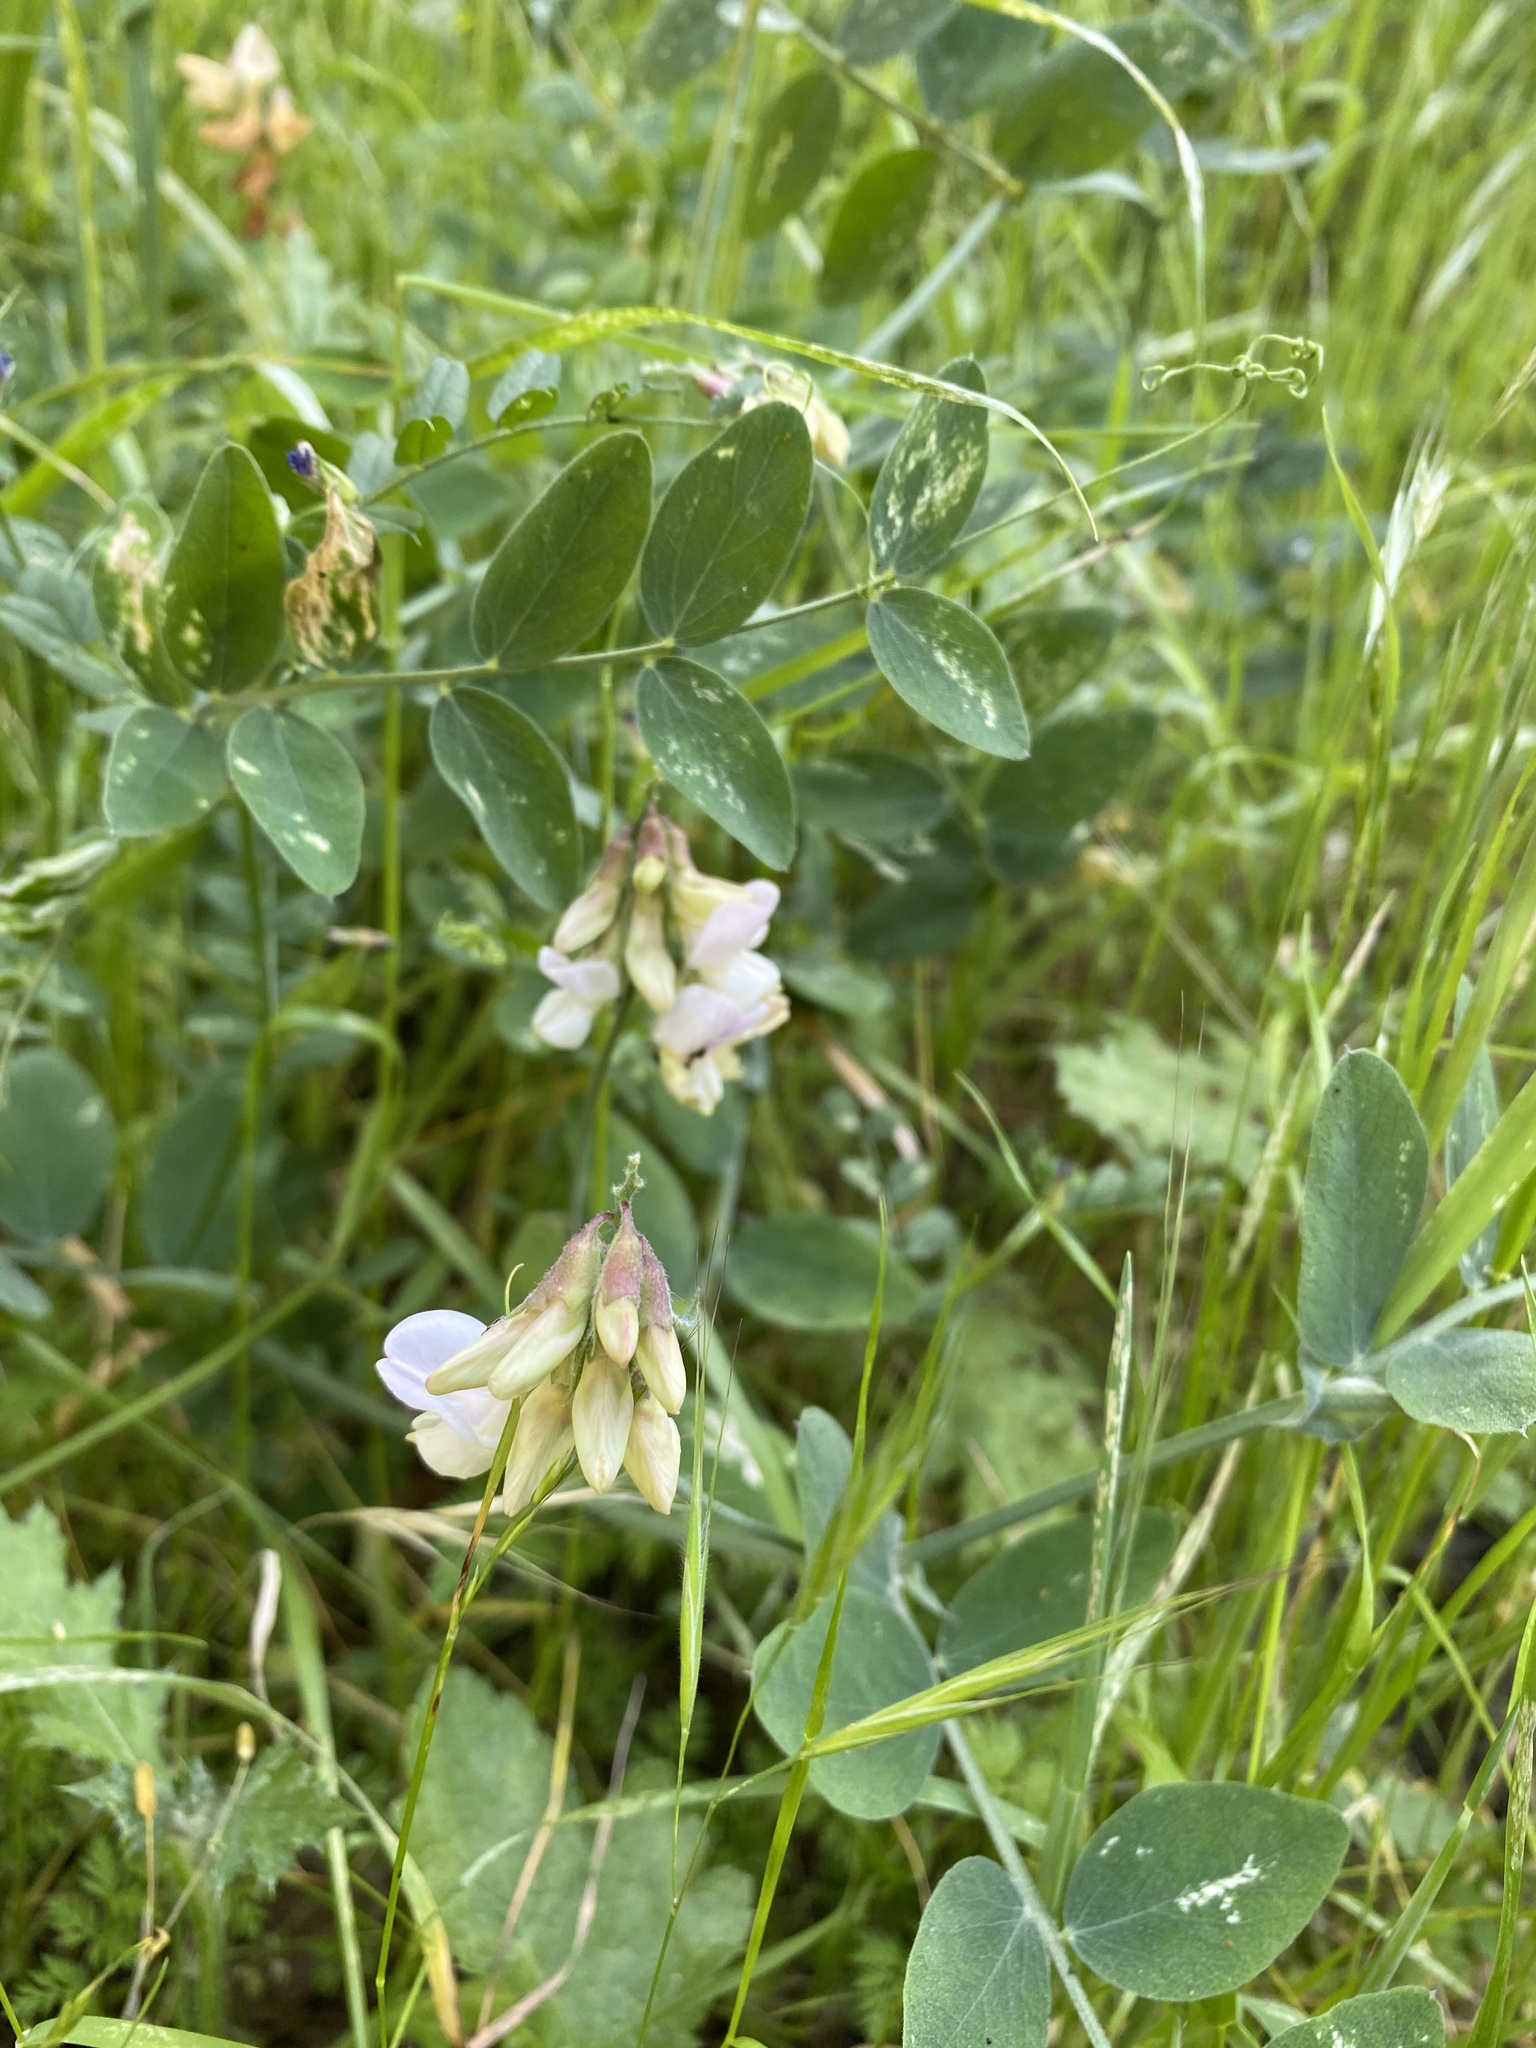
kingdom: Plantae
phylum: Tracheophyta
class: Magnoliopsida
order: Fabales
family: Fabaceae
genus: Lathyrus
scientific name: Lathyrus vestitus
